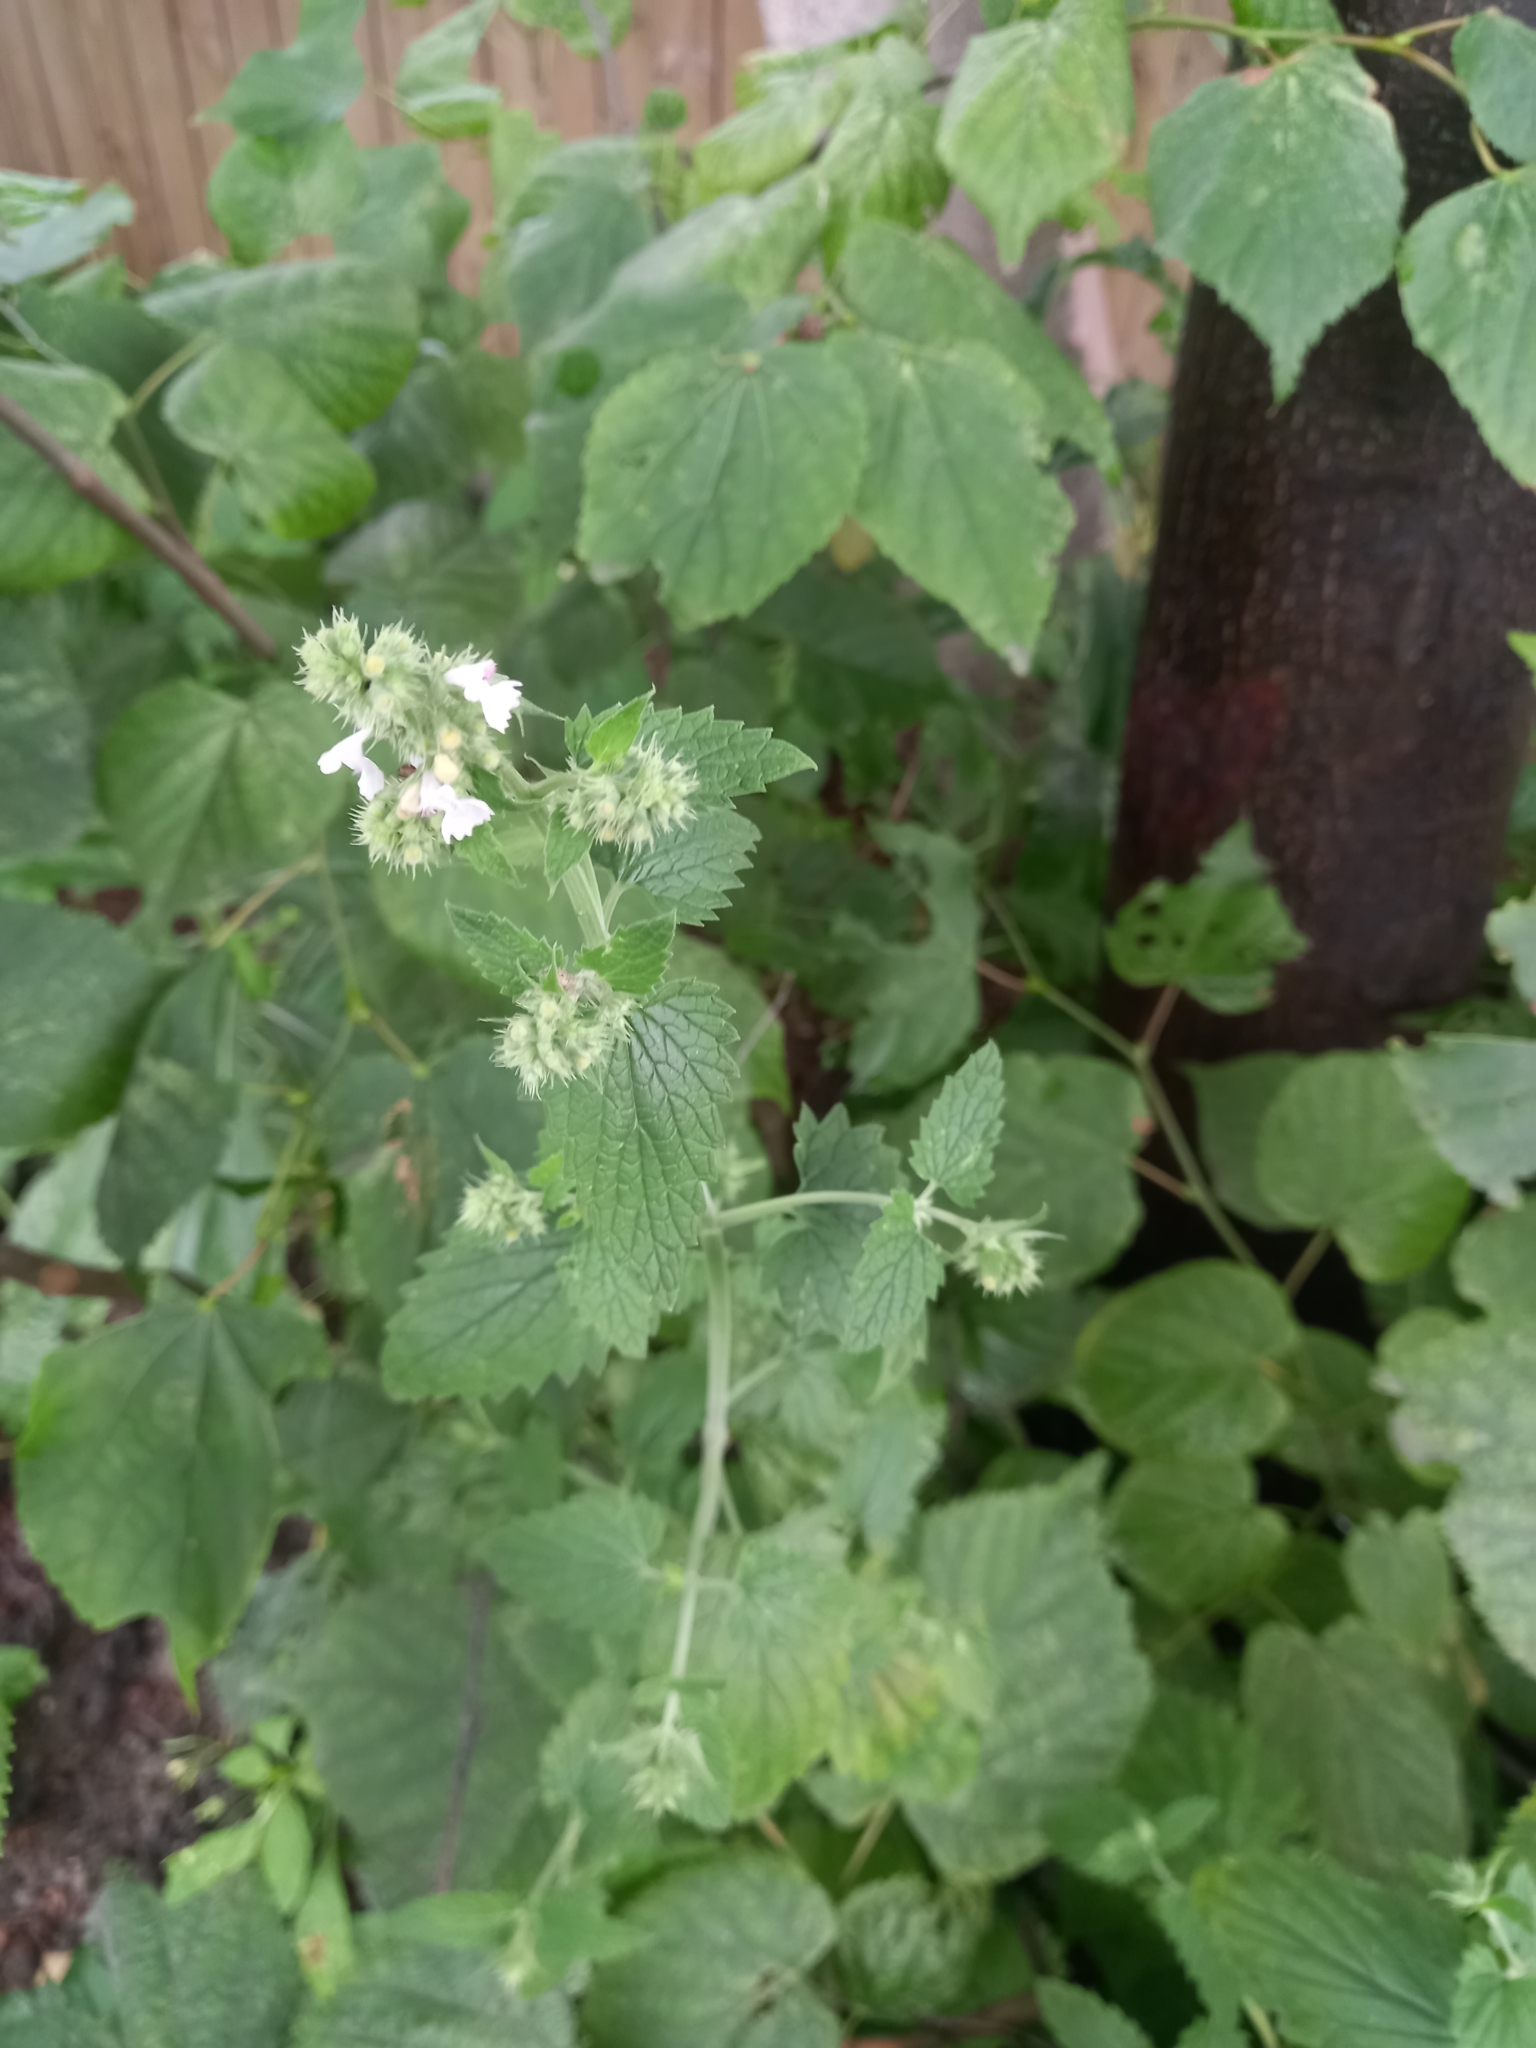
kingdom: Plantae
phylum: Tracheophyta
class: Magnoliopsida
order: Lamiales
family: Lamiaceae
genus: Nepeta
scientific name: Nepeta cataria
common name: Catnip
